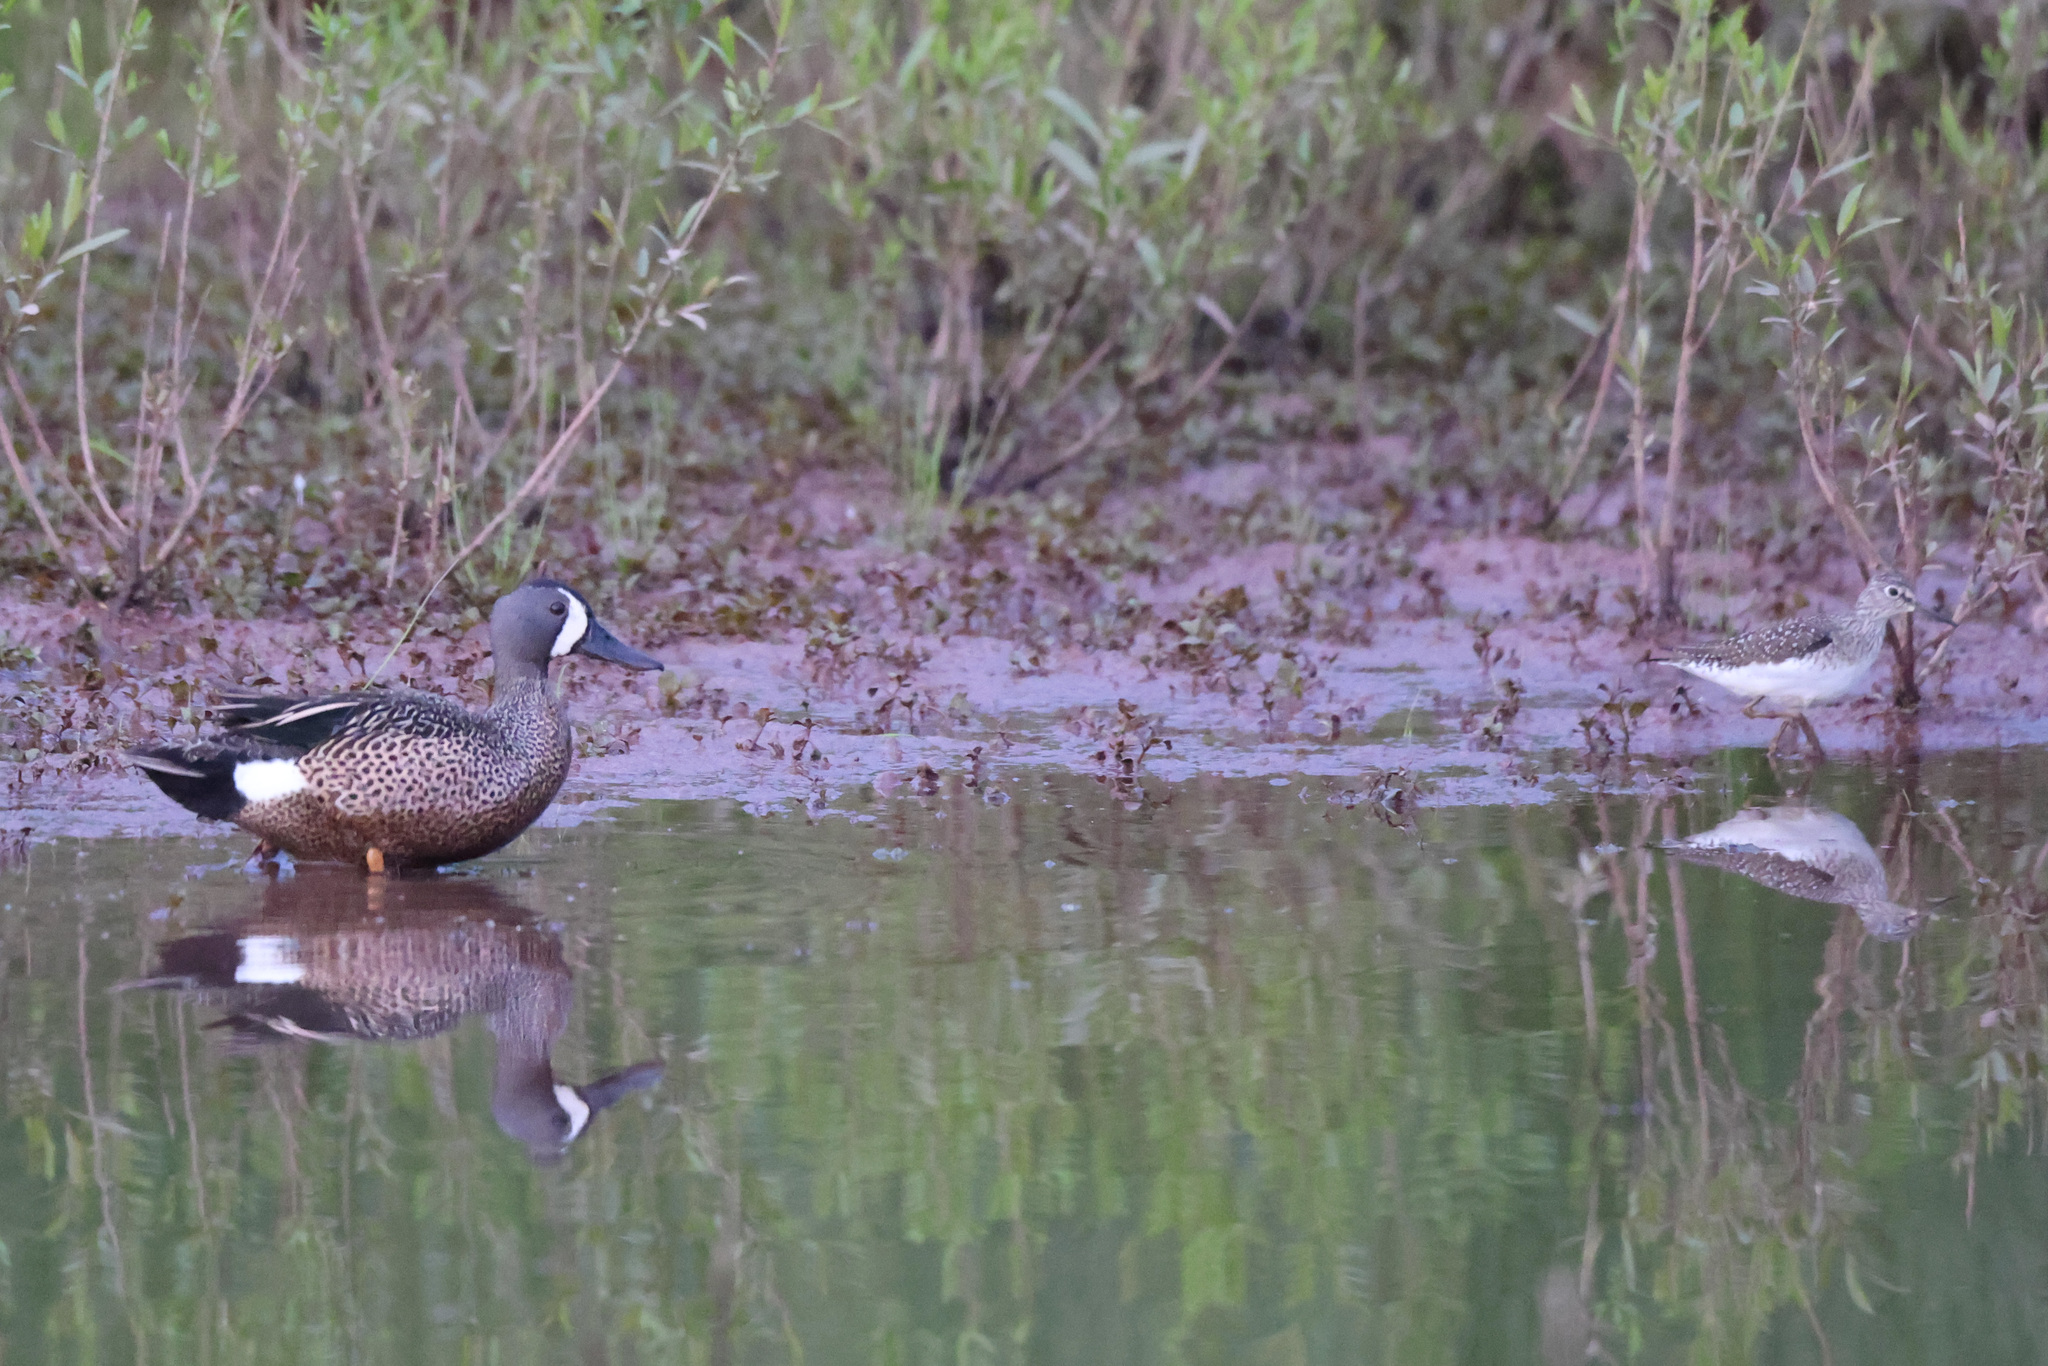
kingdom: Animalia
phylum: Chordata
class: Aves
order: Anseriformes
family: Anatidae
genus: Spatula
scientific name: Spatula discors
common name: Blue-winged teal
